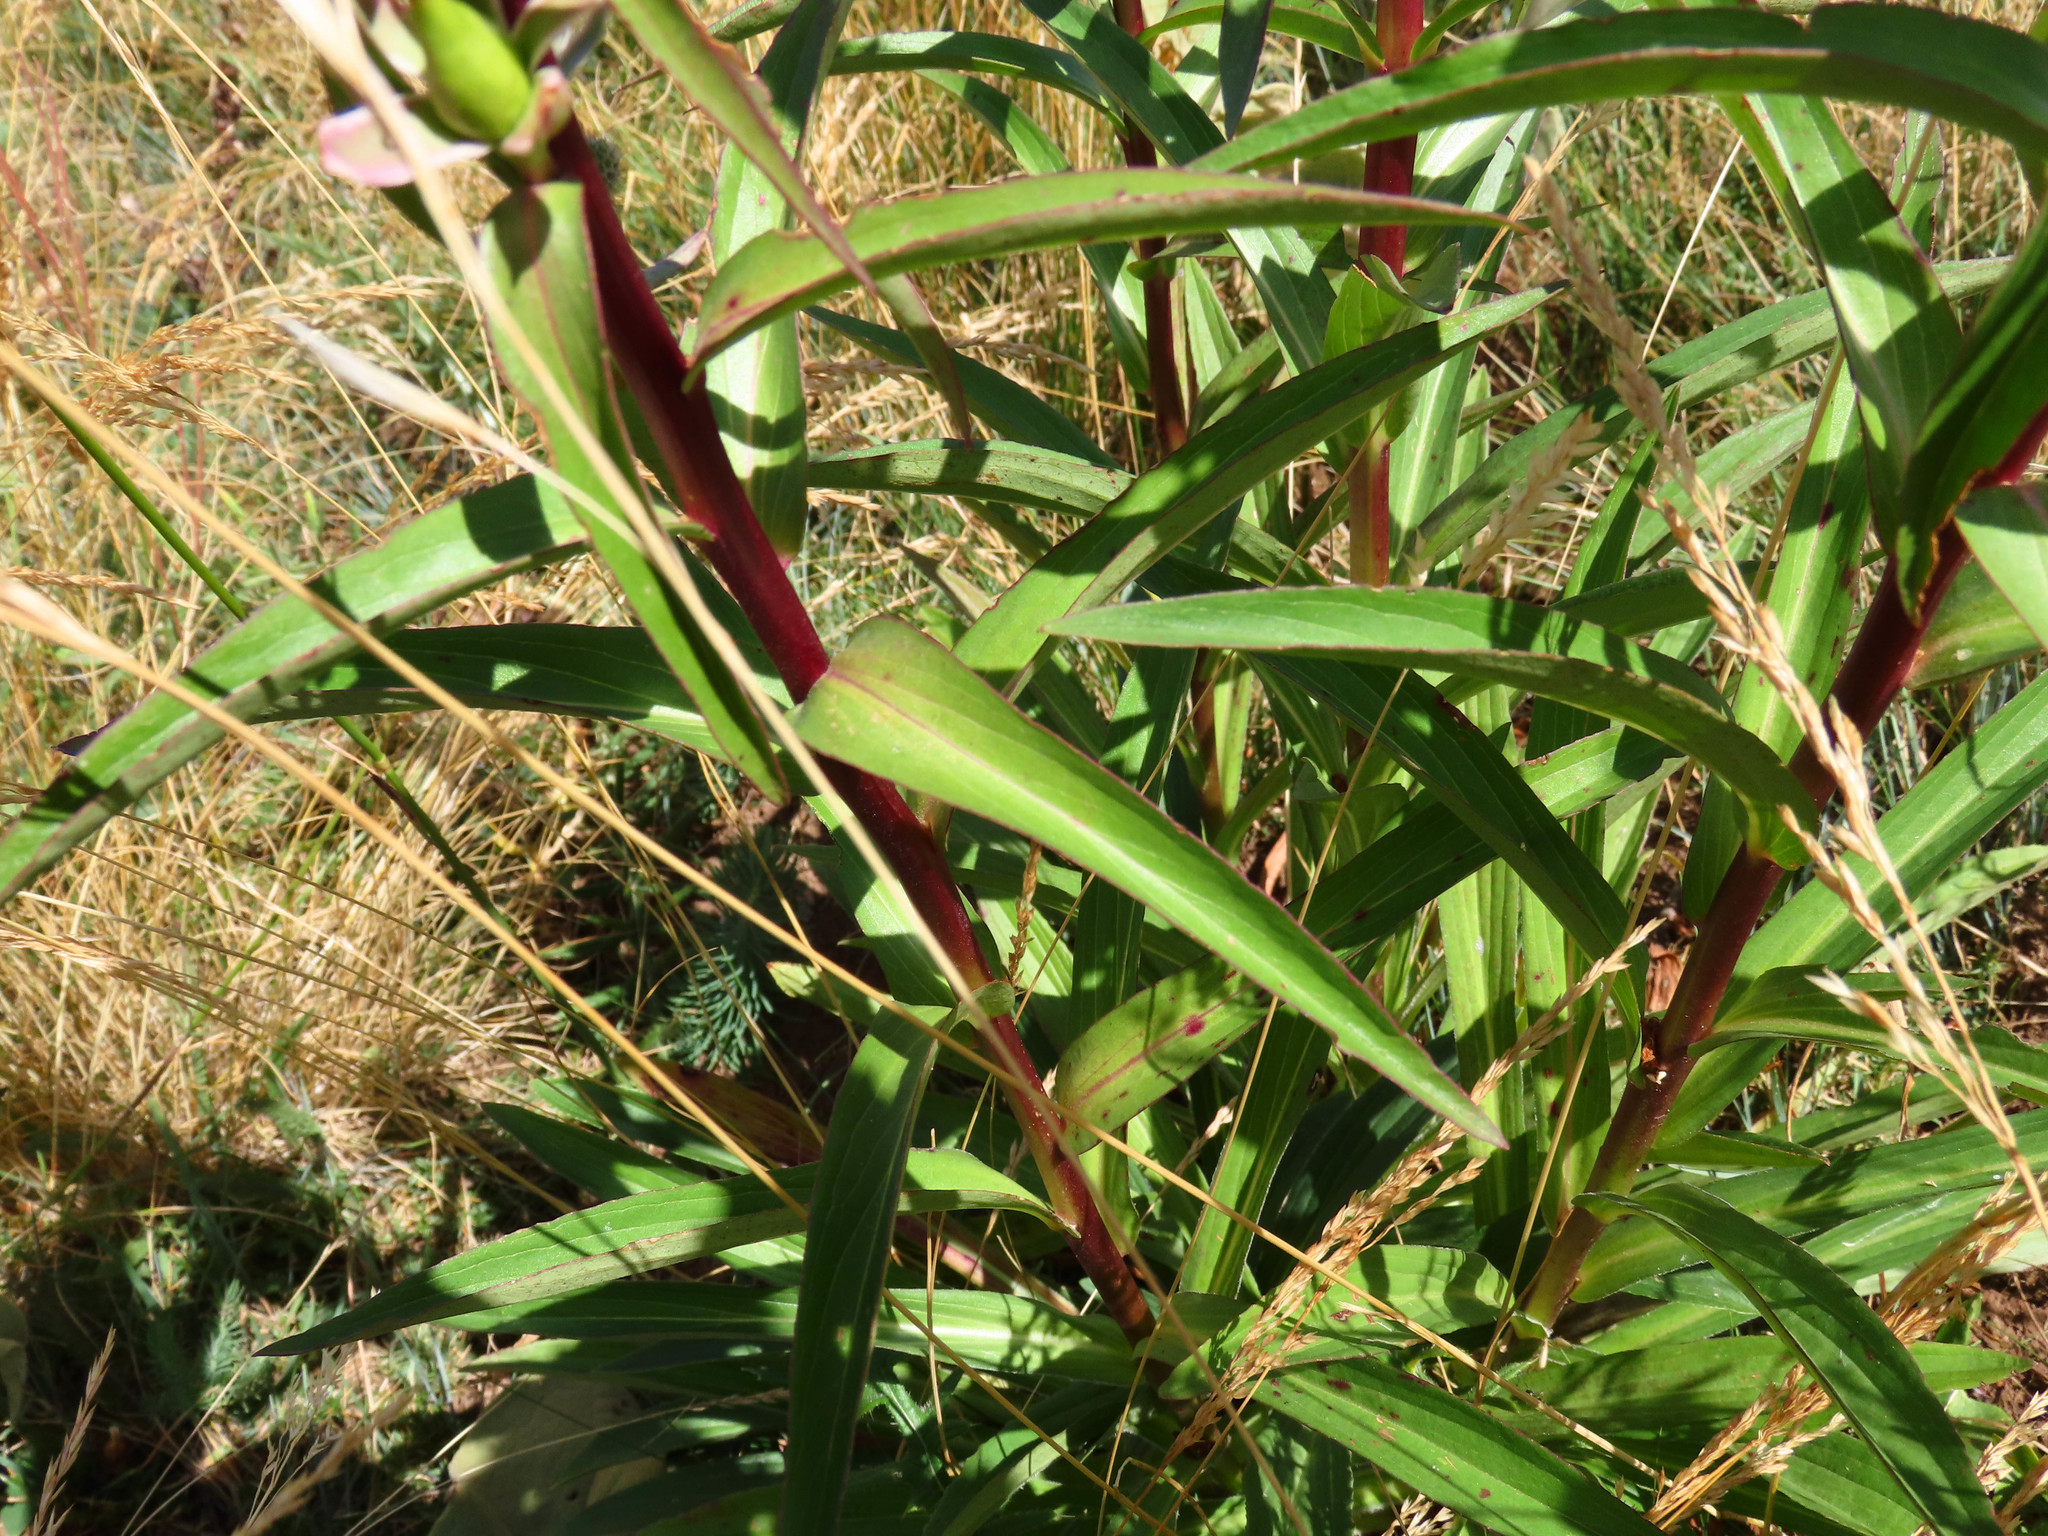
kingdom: Plantae
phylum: Tracheophyta
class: Magnoliopsida
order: Lamiales
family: Plantaginaceae
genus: Digitalis
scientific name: Digitalis ferruginea
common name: Rusty foxglove
